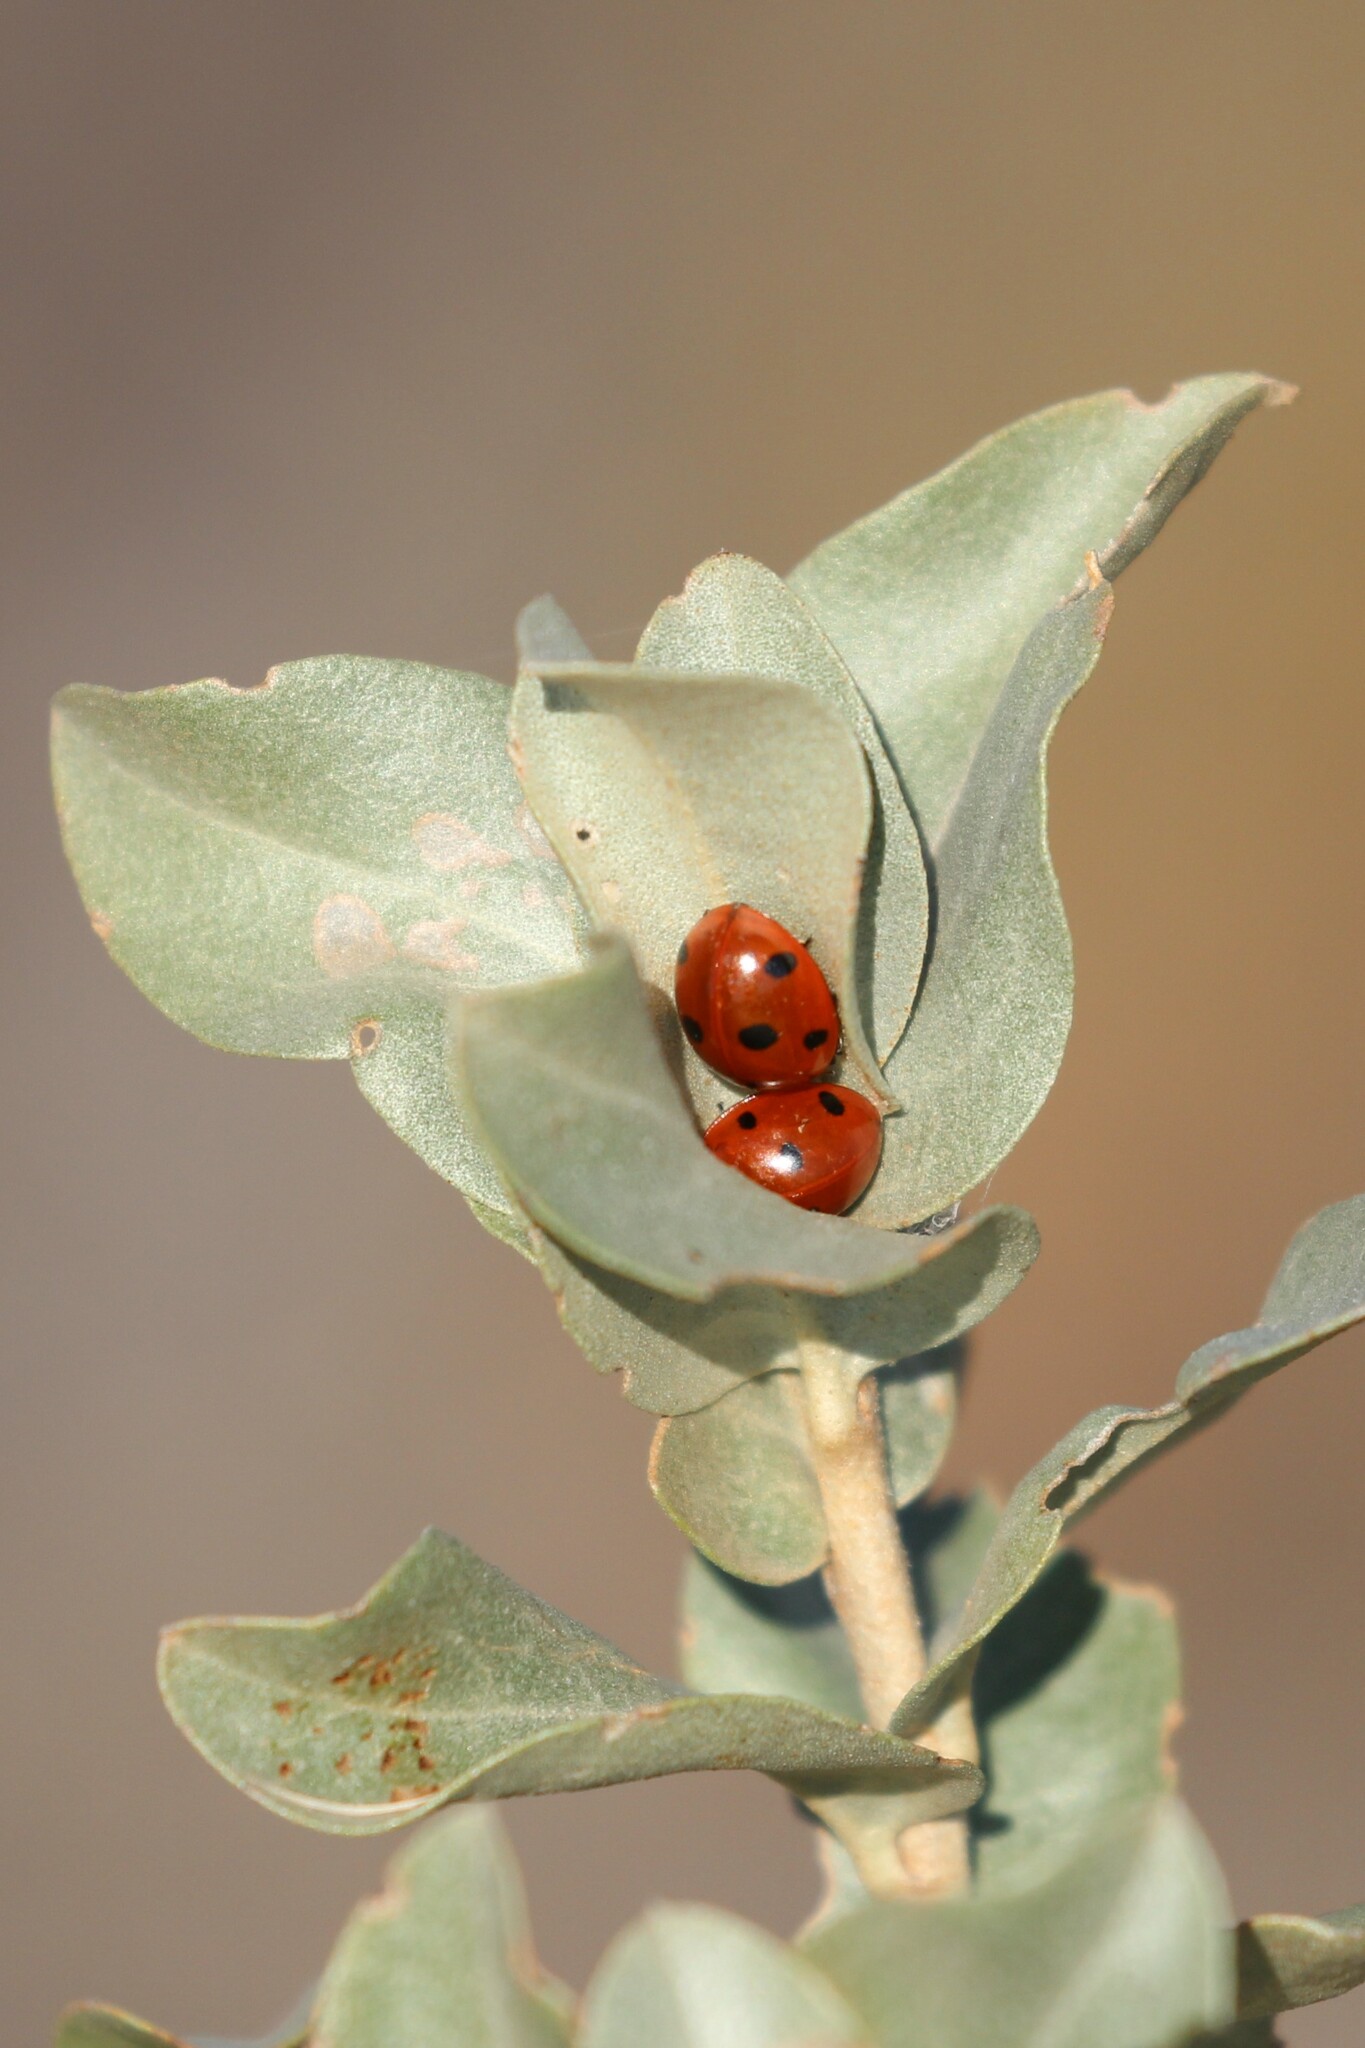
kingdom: Plantae
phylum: Tracheophyta
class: Magnoliopsida
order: Rosales
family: Elaeagnaceae
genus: Elaeagnus
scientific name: Elaeagnus commutata
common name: Silverberry
